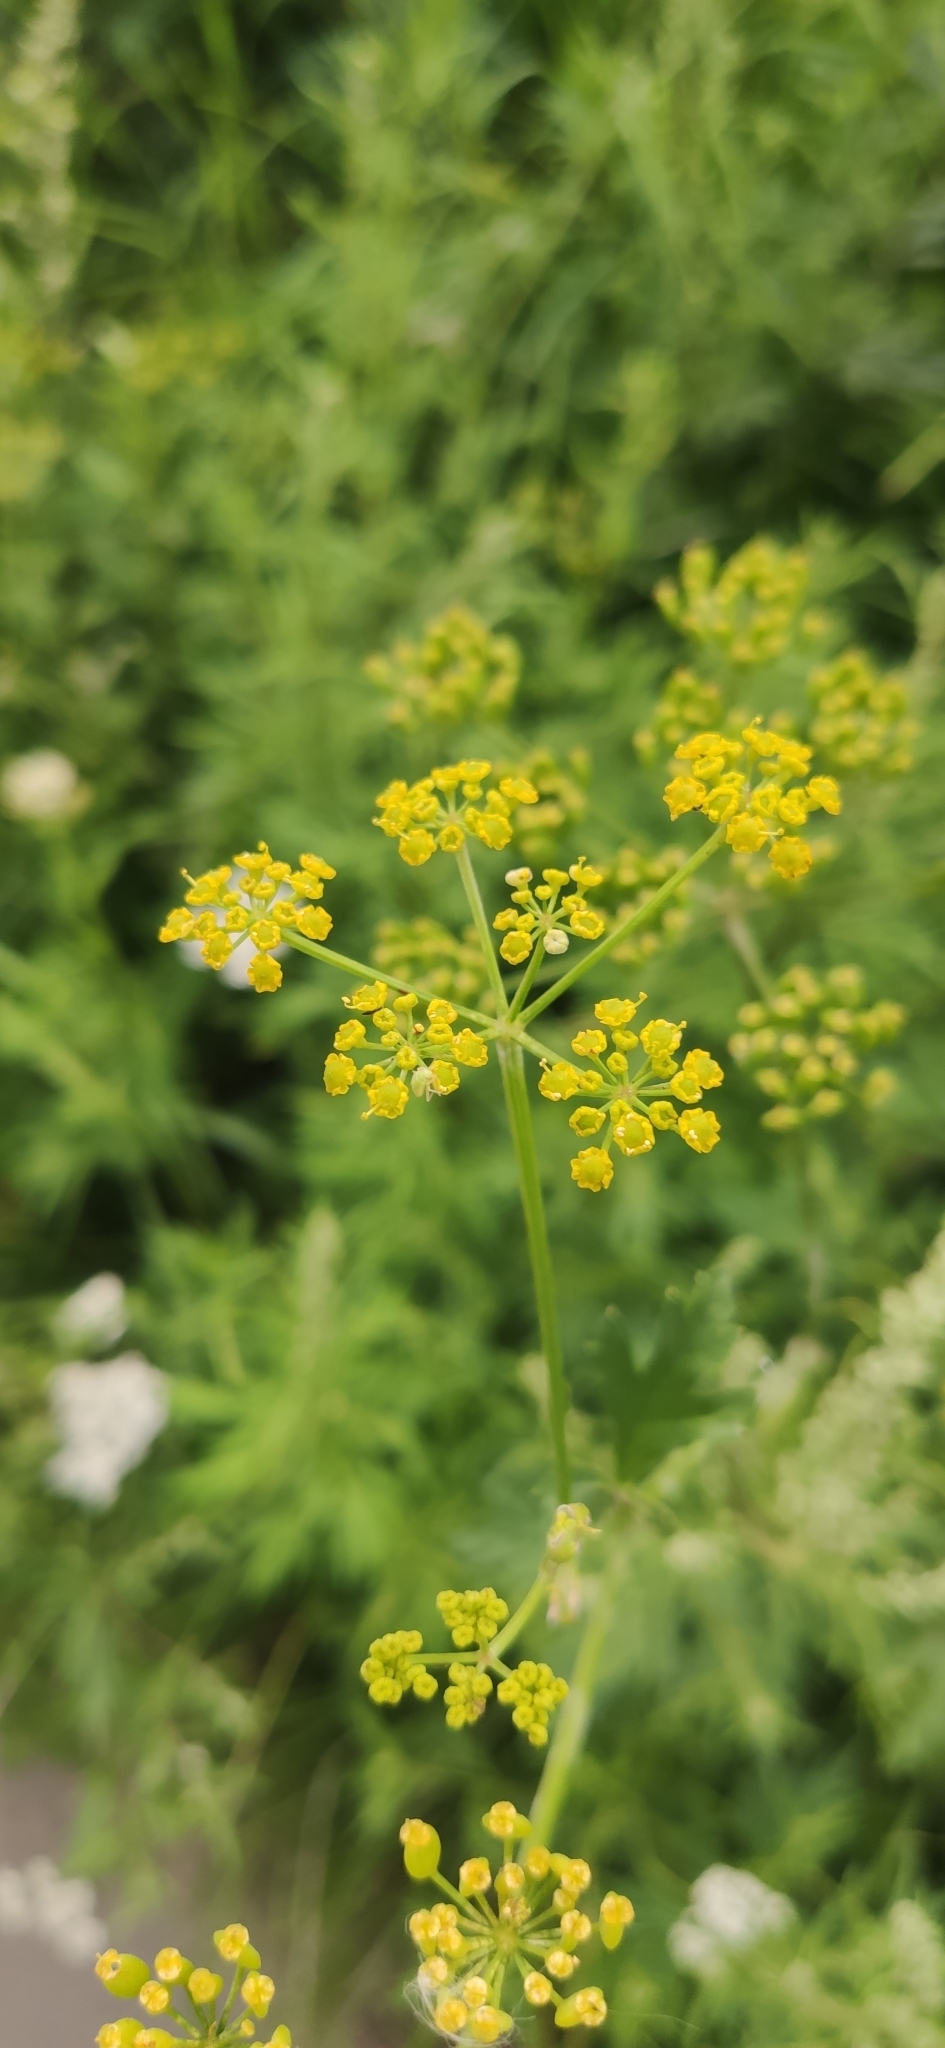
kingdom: Plantae
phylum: Tracheophyta
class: Magnoliopsida
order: Apiales
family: Apiaceae
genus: Pastinaca
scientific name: Pastinaca sativa
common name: Wild parsnip
